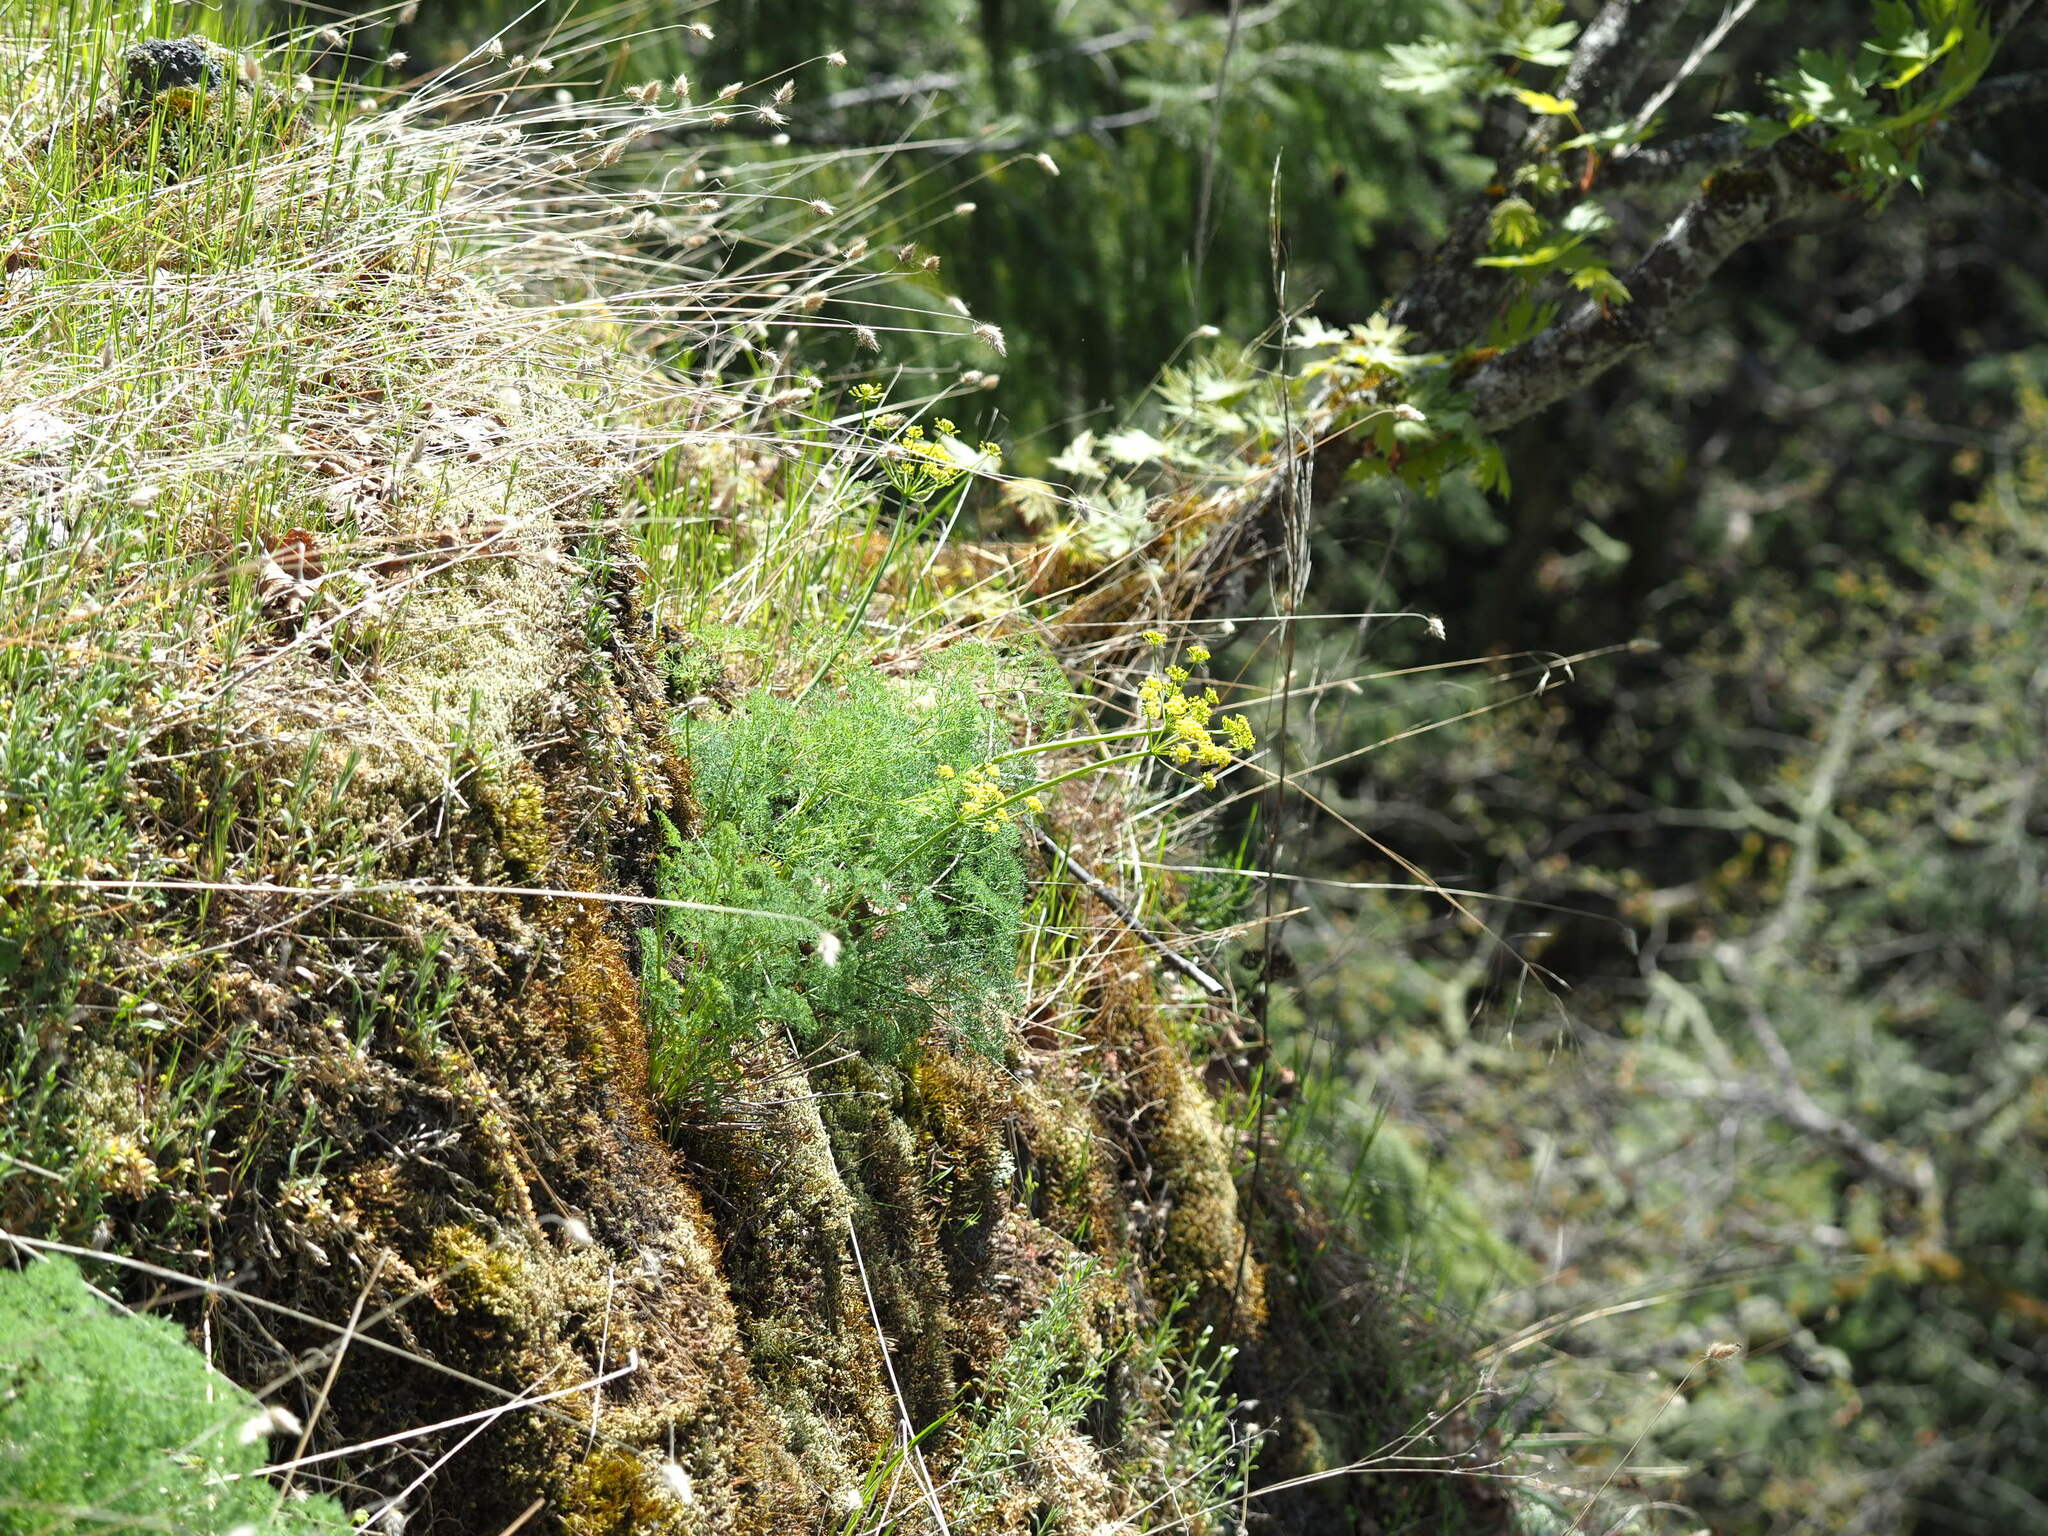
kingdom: Plantae
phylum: Tracheophyta
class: Magnoliopsida
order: Apiales
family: Apiaceae
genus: Lomatium
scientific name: Lomatium papilioniferum
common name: Butterfly lomatium
